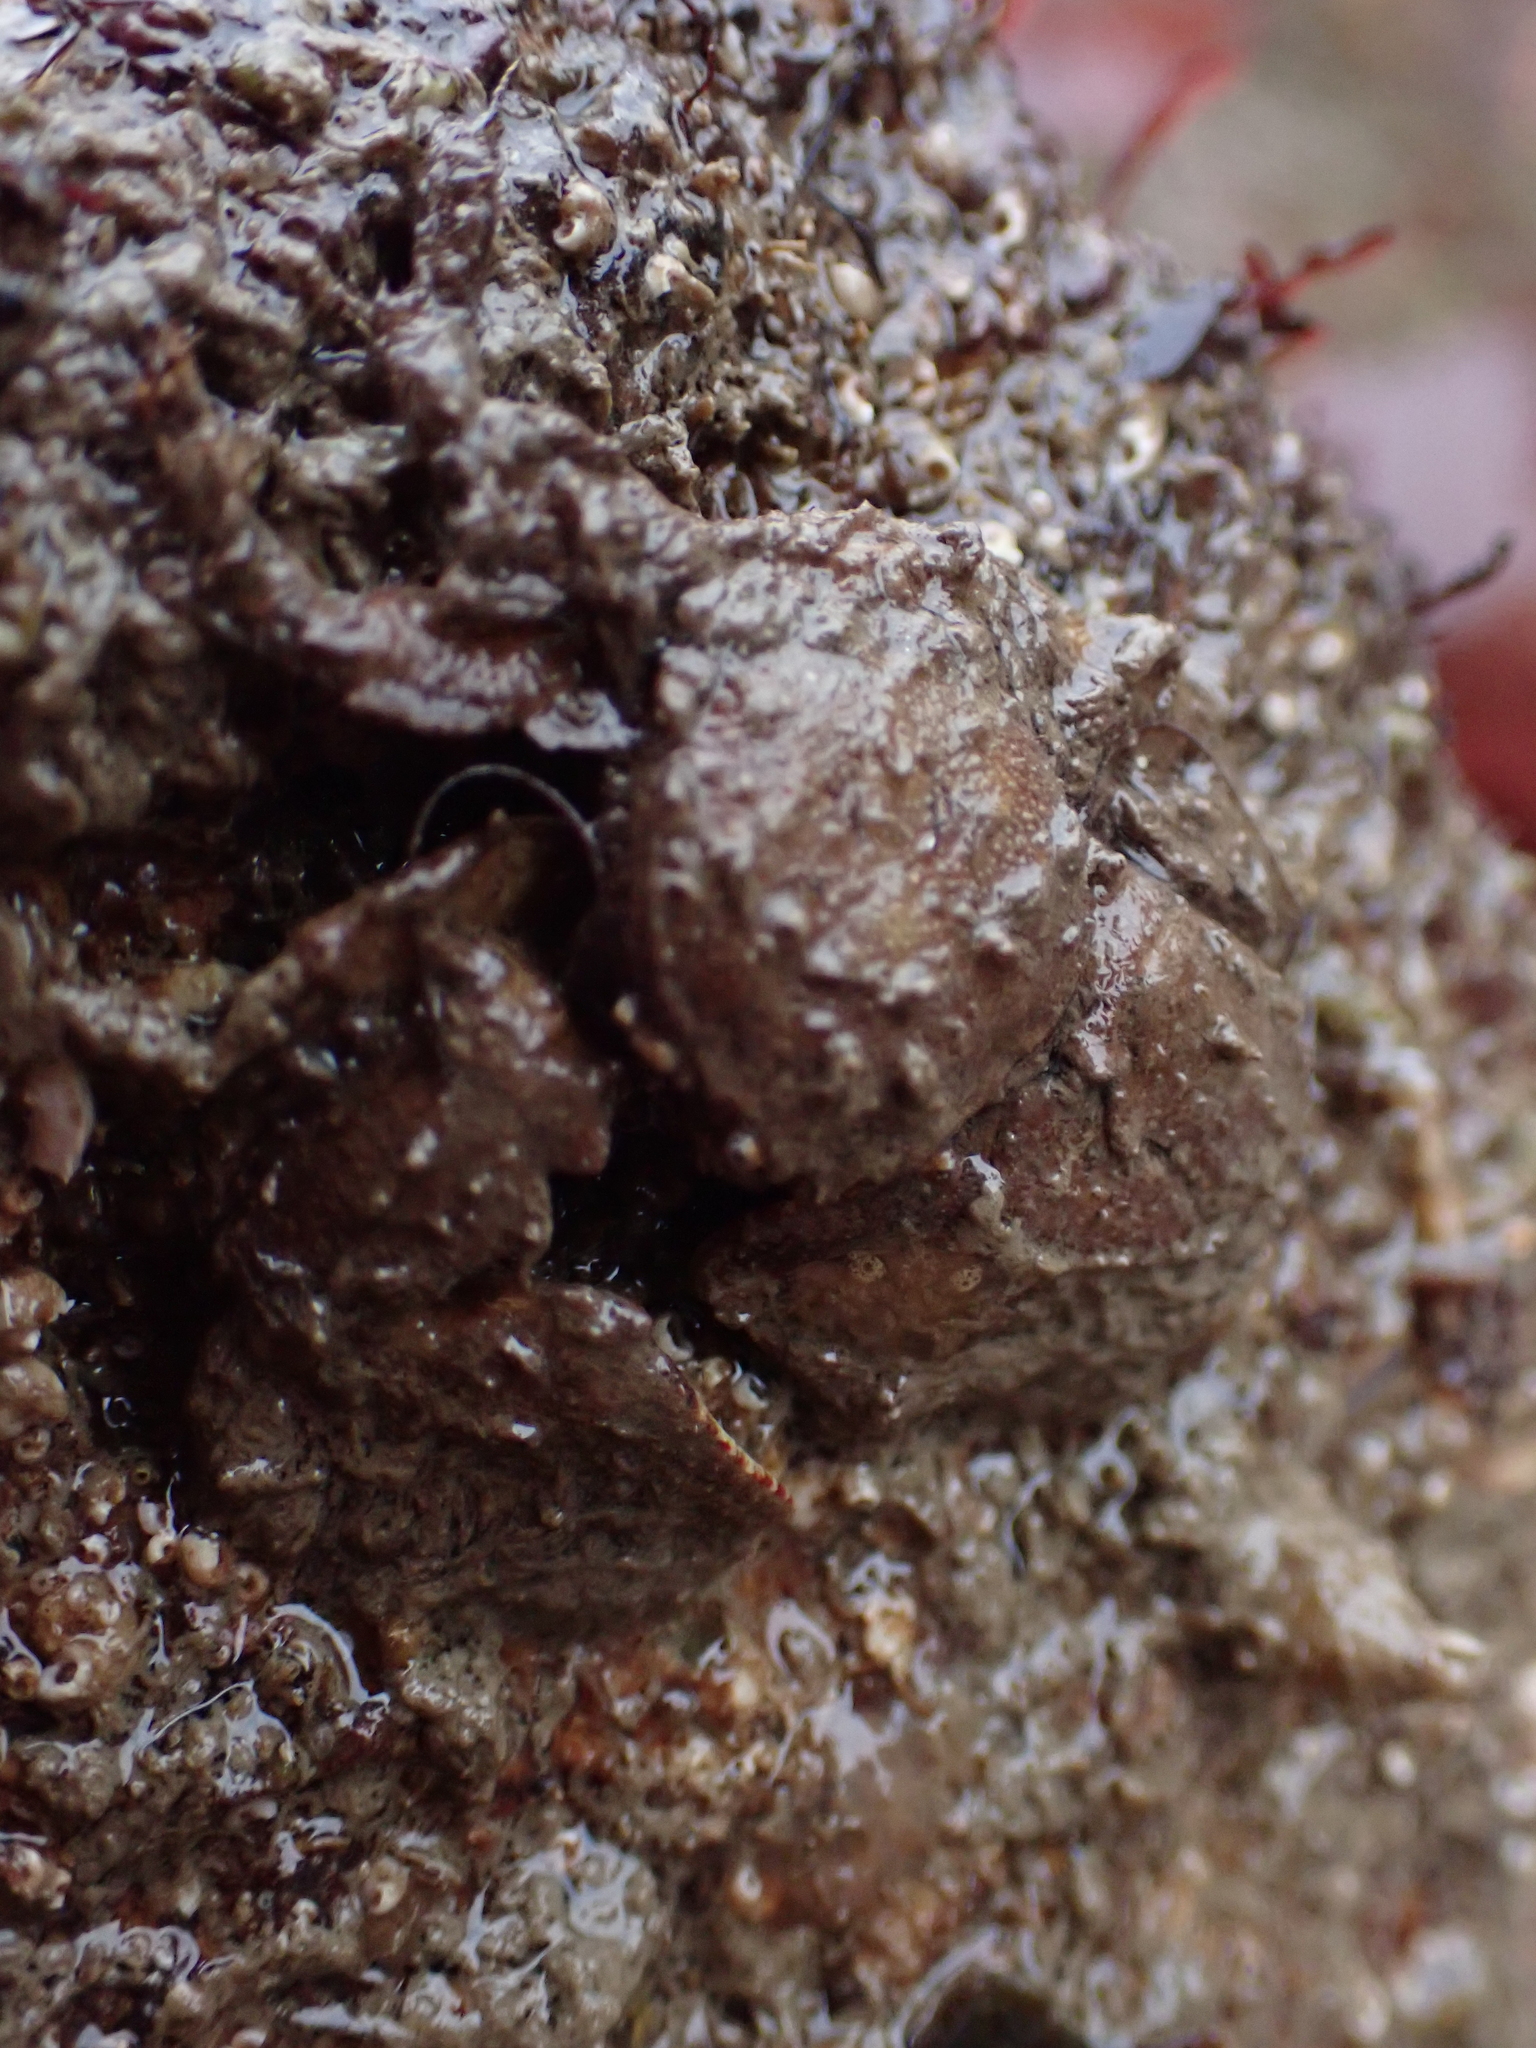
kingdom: Animalia
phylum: Arthropoda
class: Malacostraca
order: Decapoda
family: Porcellanidae
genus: Porcellana
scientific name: Porcellana platycheles
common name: Porcelain crab
